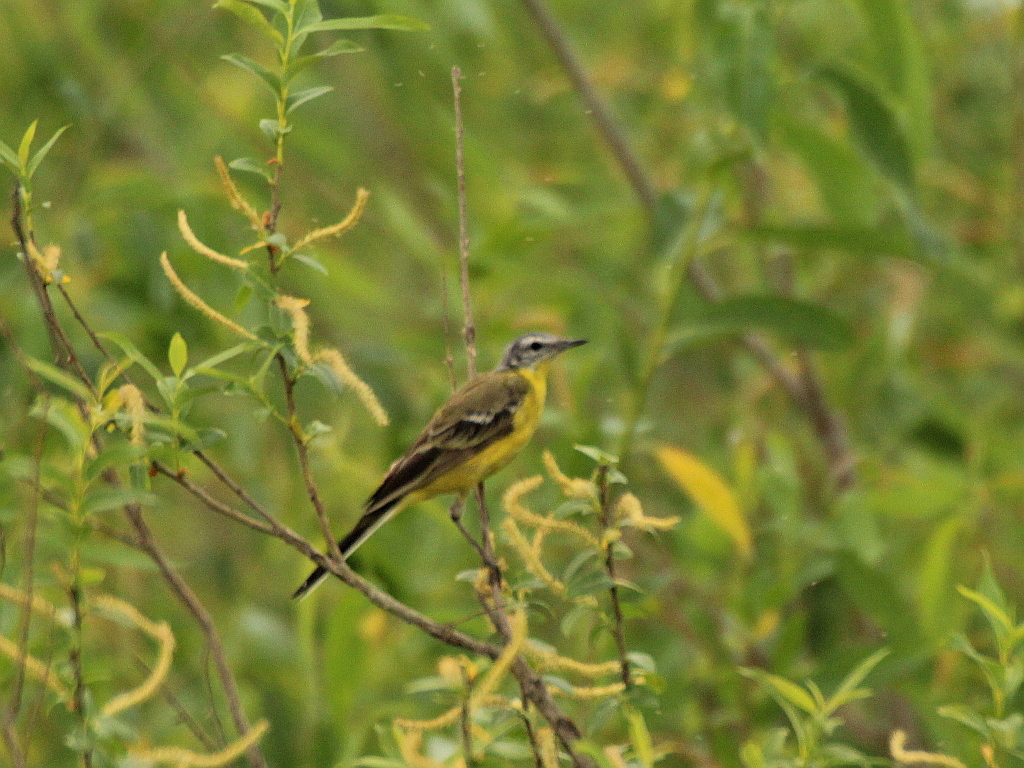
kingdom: Animalia
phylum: Chordata
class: Aves
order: Passeriformes
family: Motacillidae
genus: Motacilla
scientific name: Motacilla flava
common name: Western yellow wagtail
